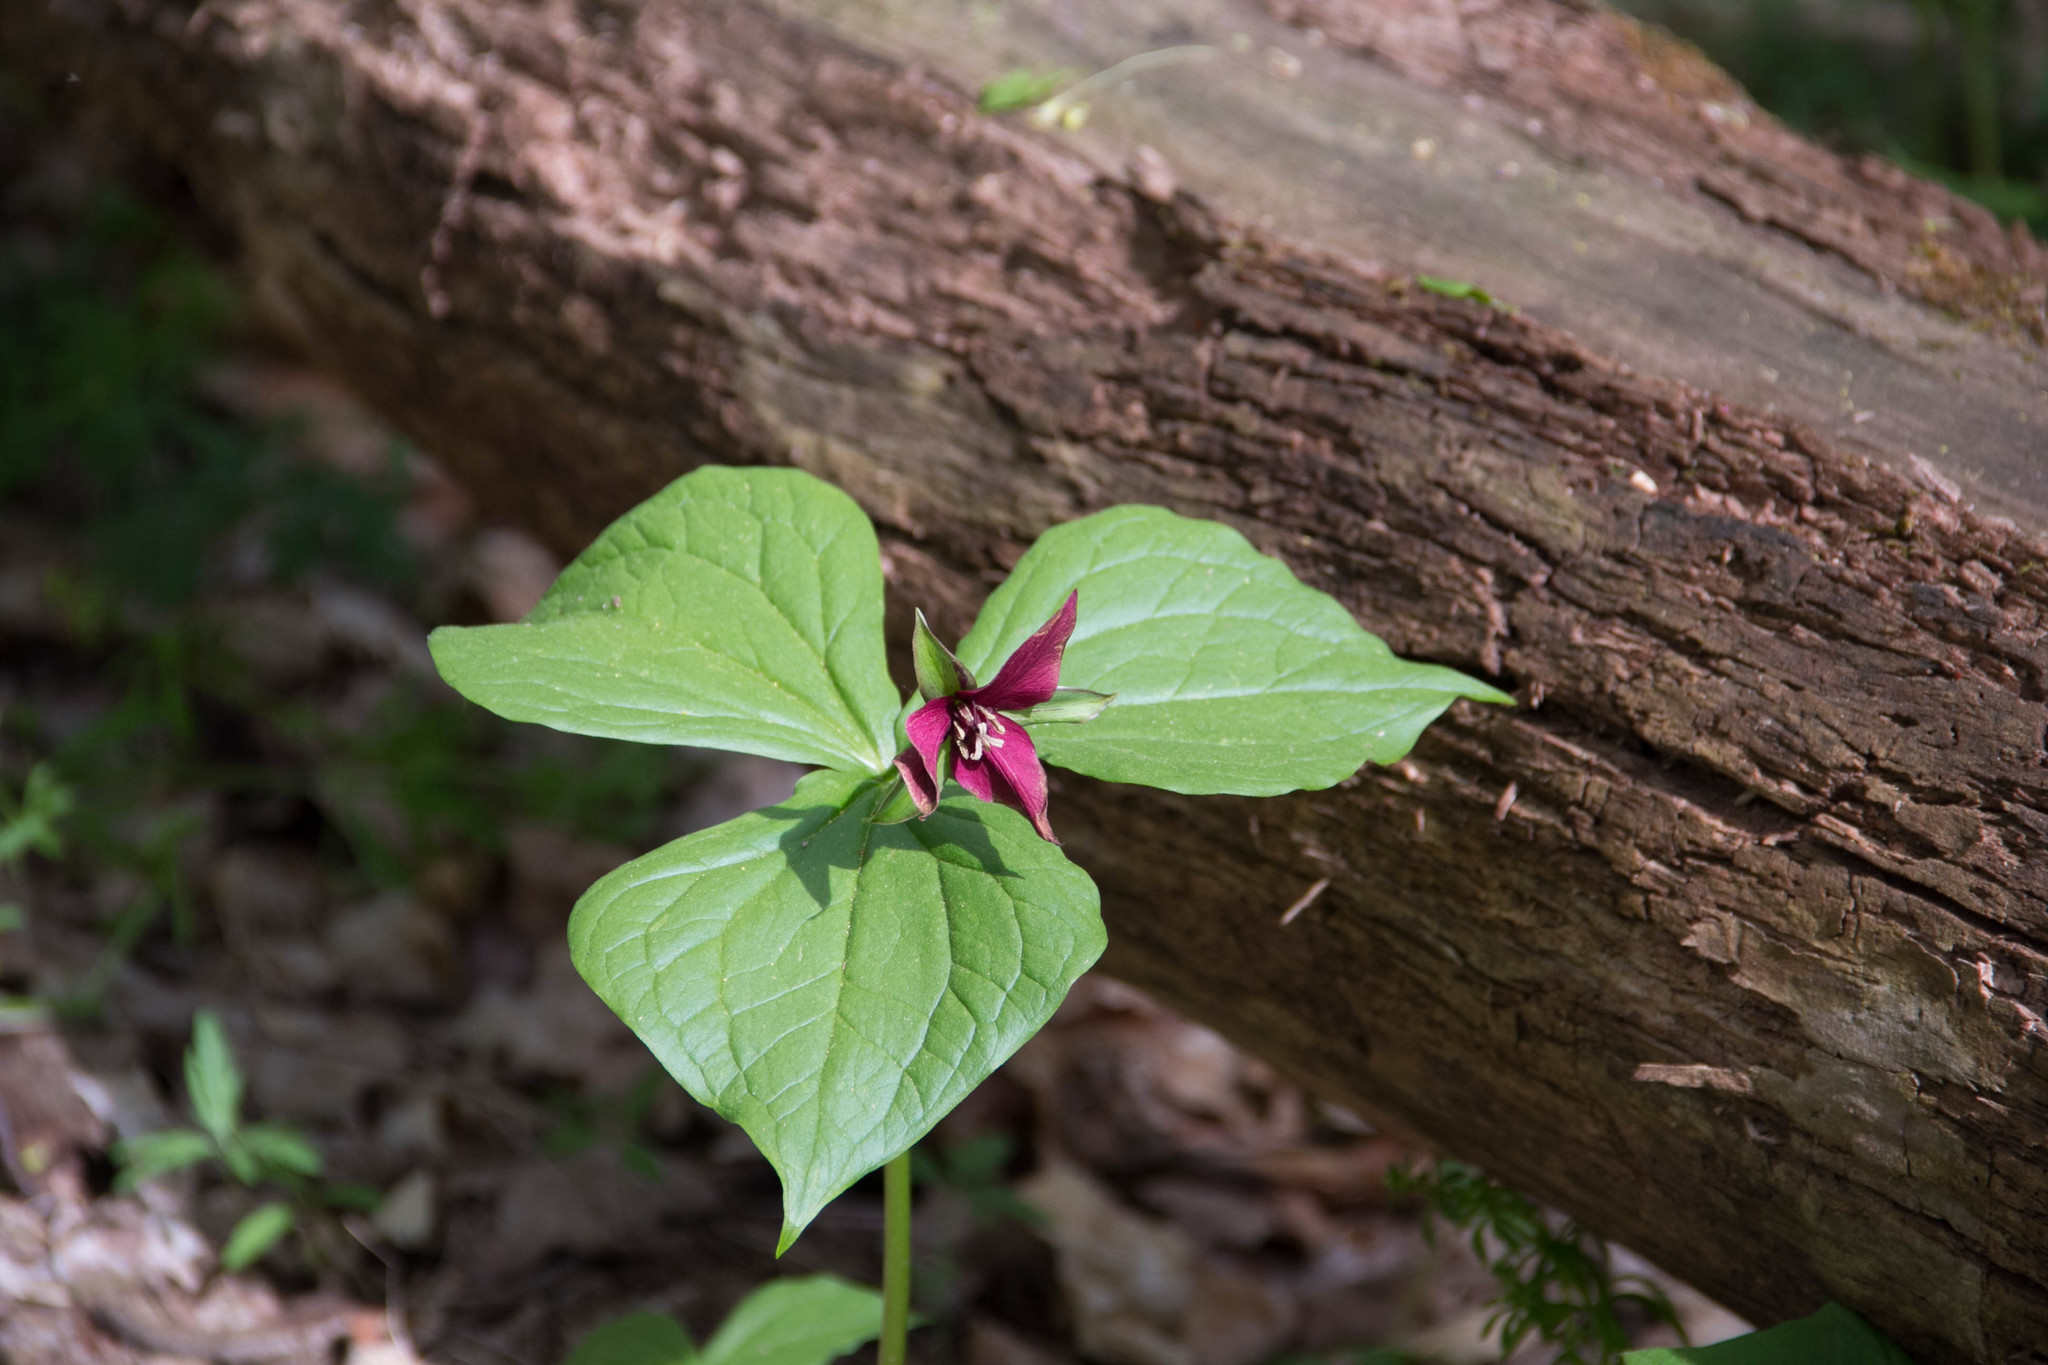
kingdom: Plantae
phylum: Tracheophyta
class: Liliopsida
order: Liliales
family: Melanthiaceae
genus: Trillium
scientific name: Trillium erectum
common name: Purple trillium
